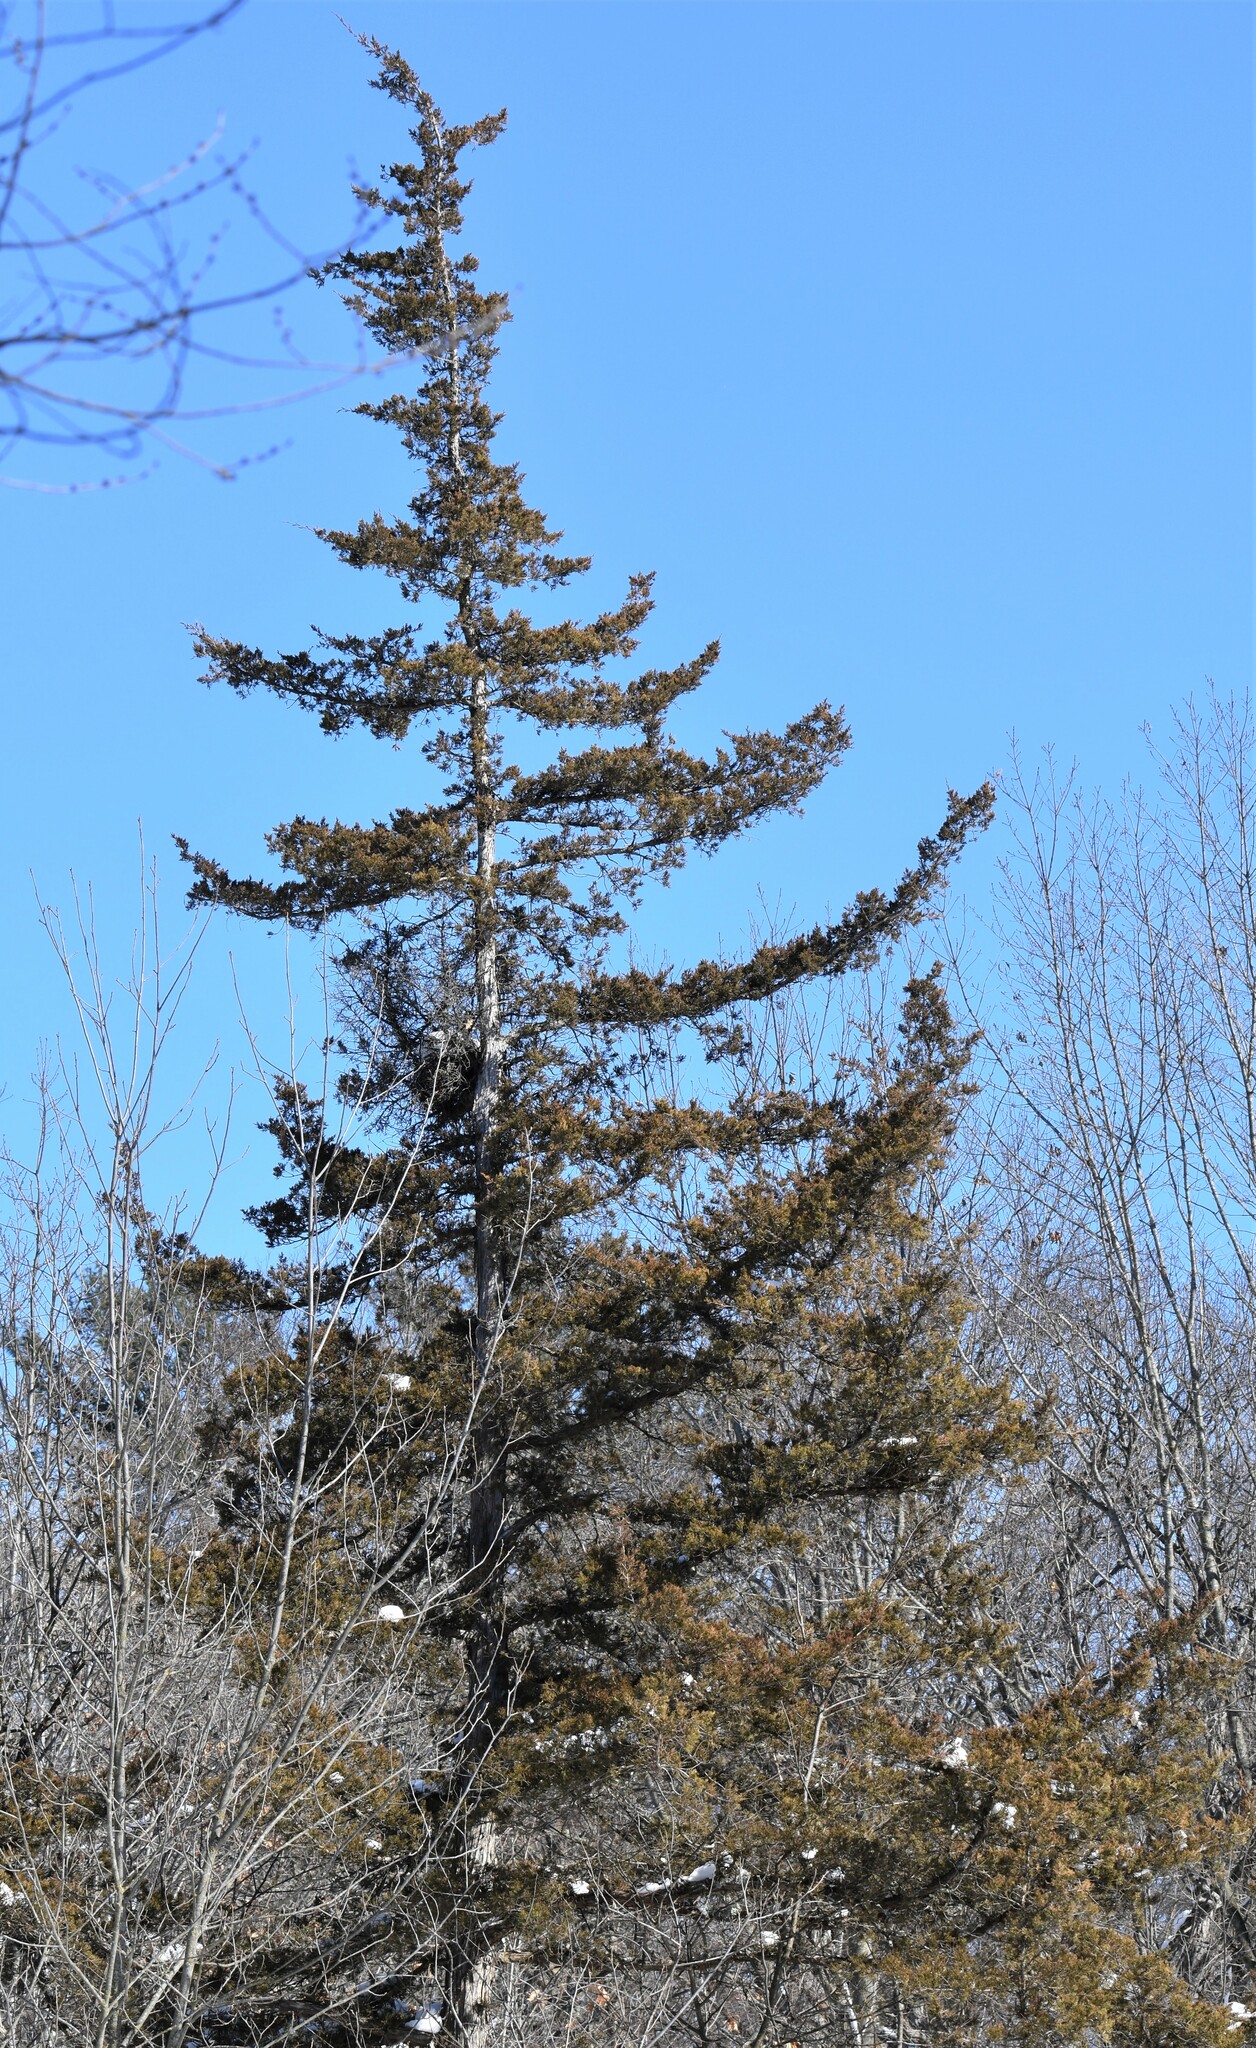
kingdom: Plantae
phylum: Tracheophyta
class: Pinopsida
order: Pinales
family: Cupressaceae
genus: Juniperus
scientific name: Juniperus virginiana
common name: Red juniper
